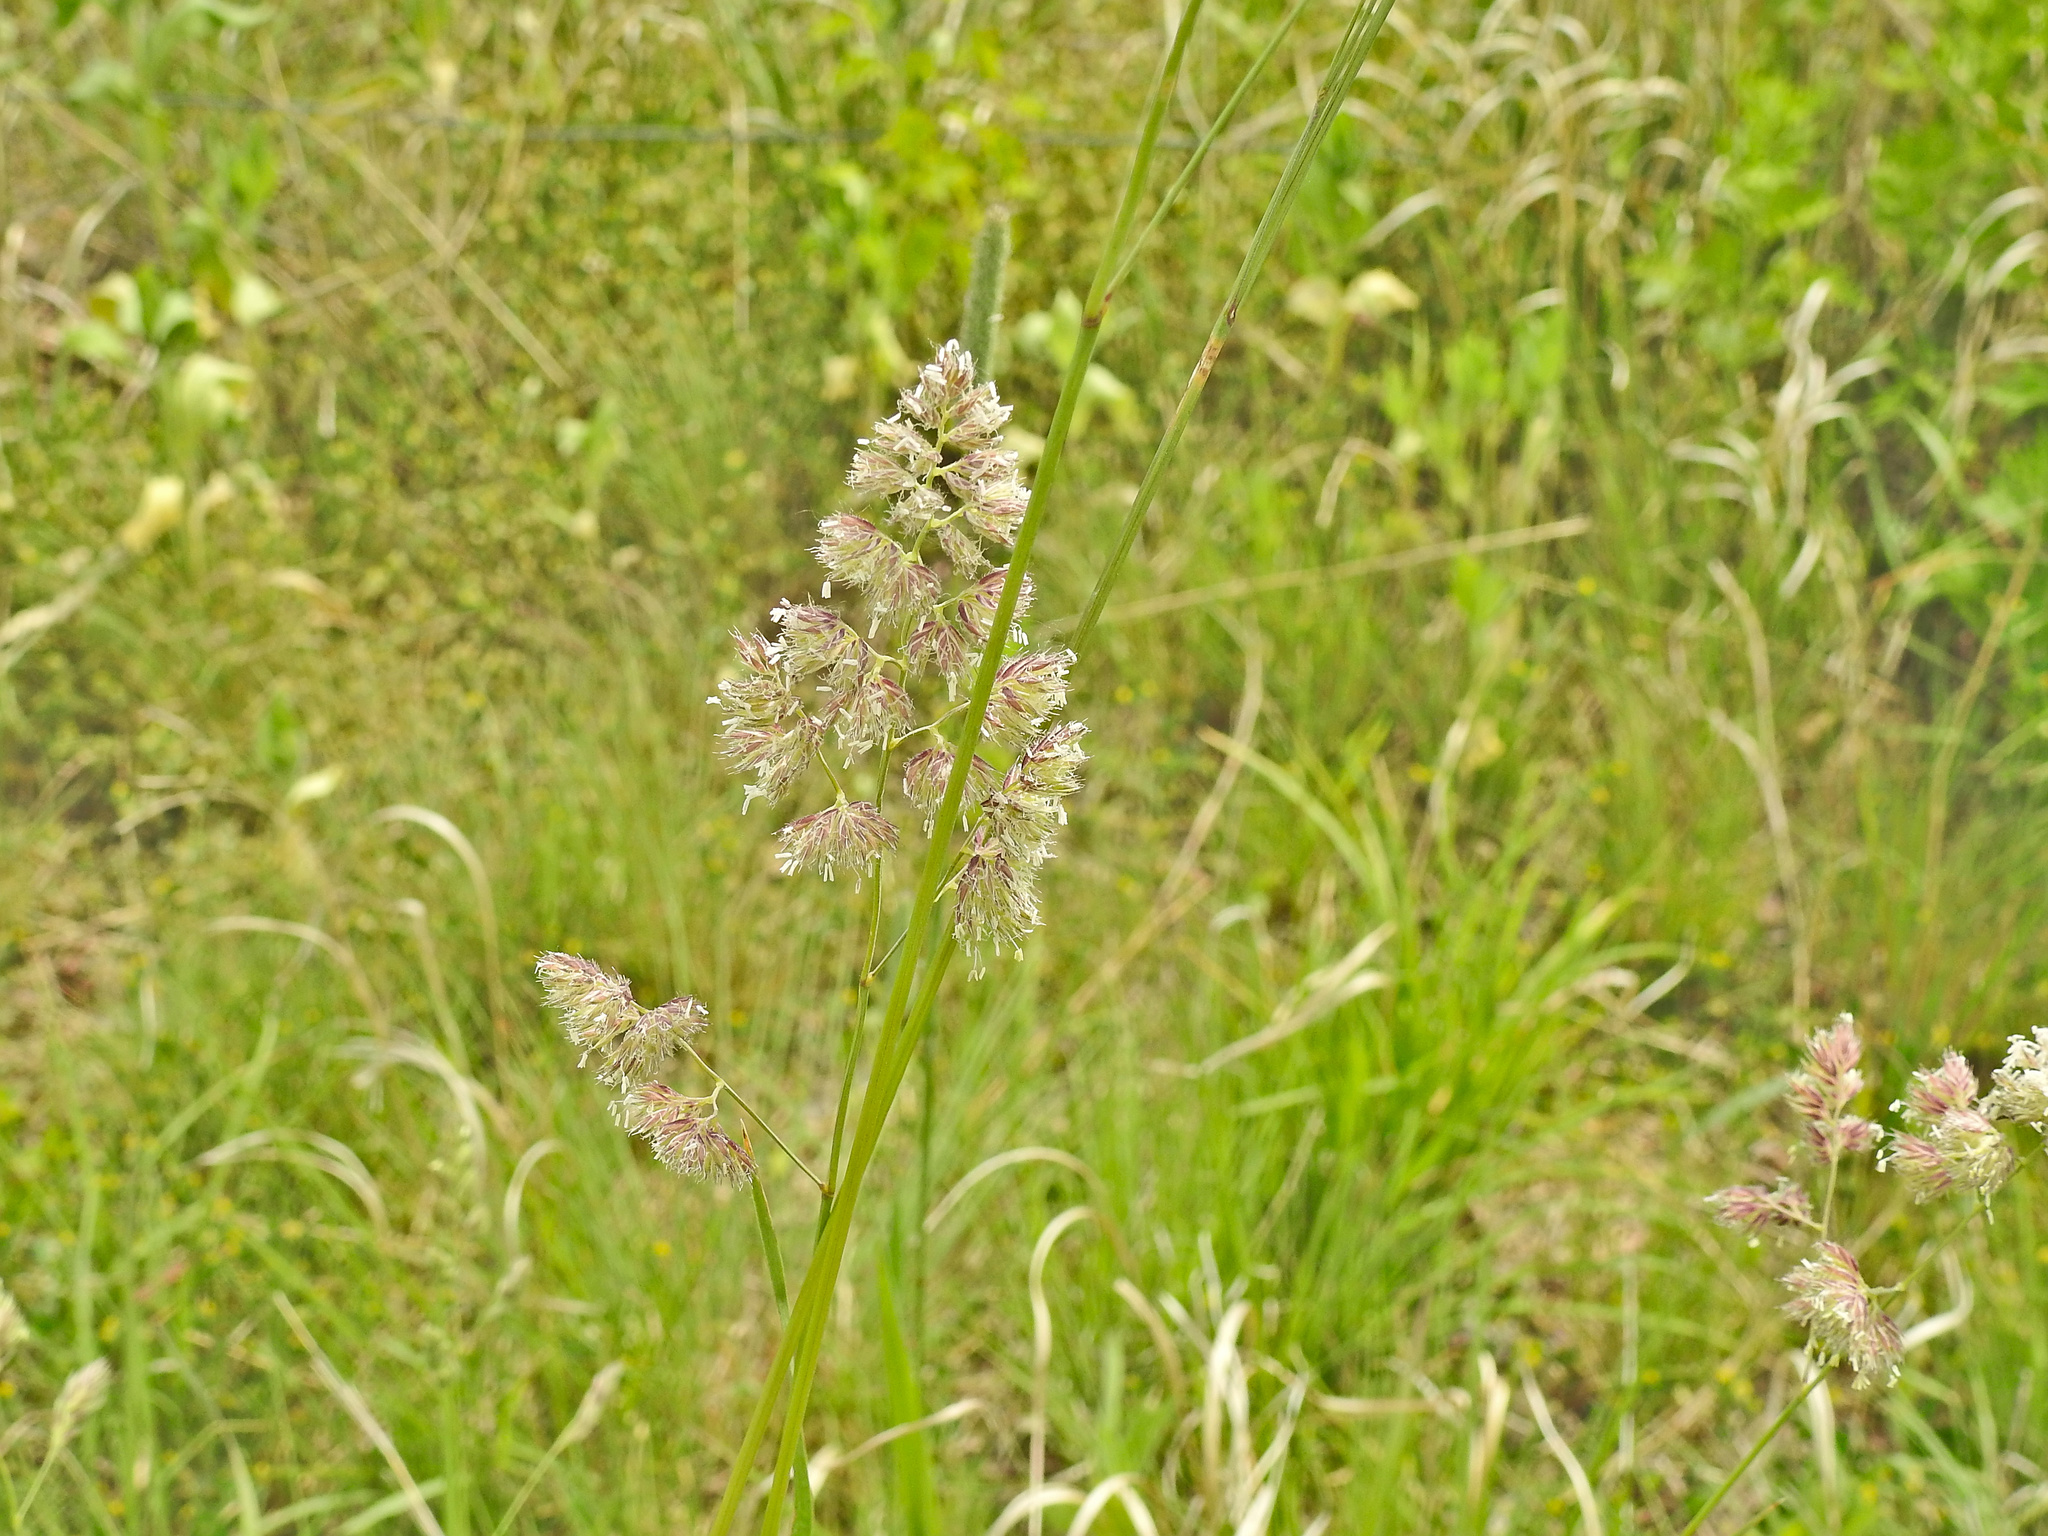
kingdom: Plantae
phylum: Tracheophyta
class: Liliopsida
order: Poales
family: Poaceae
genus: Dactylis
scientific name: Dactylis glomerata
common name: Orchardgrass
